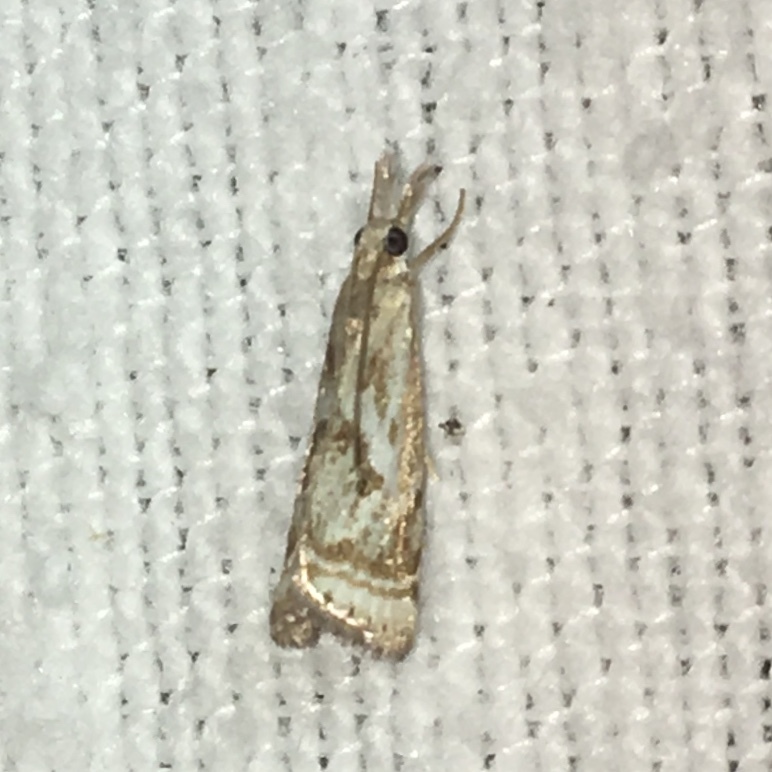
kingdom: Animalia
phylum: Arthropoda
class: Insecta
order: Lepidoptera
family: Crambidae
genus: Microcrambus
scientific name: Microcrambus elegans
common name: Elegant grass-veneer
